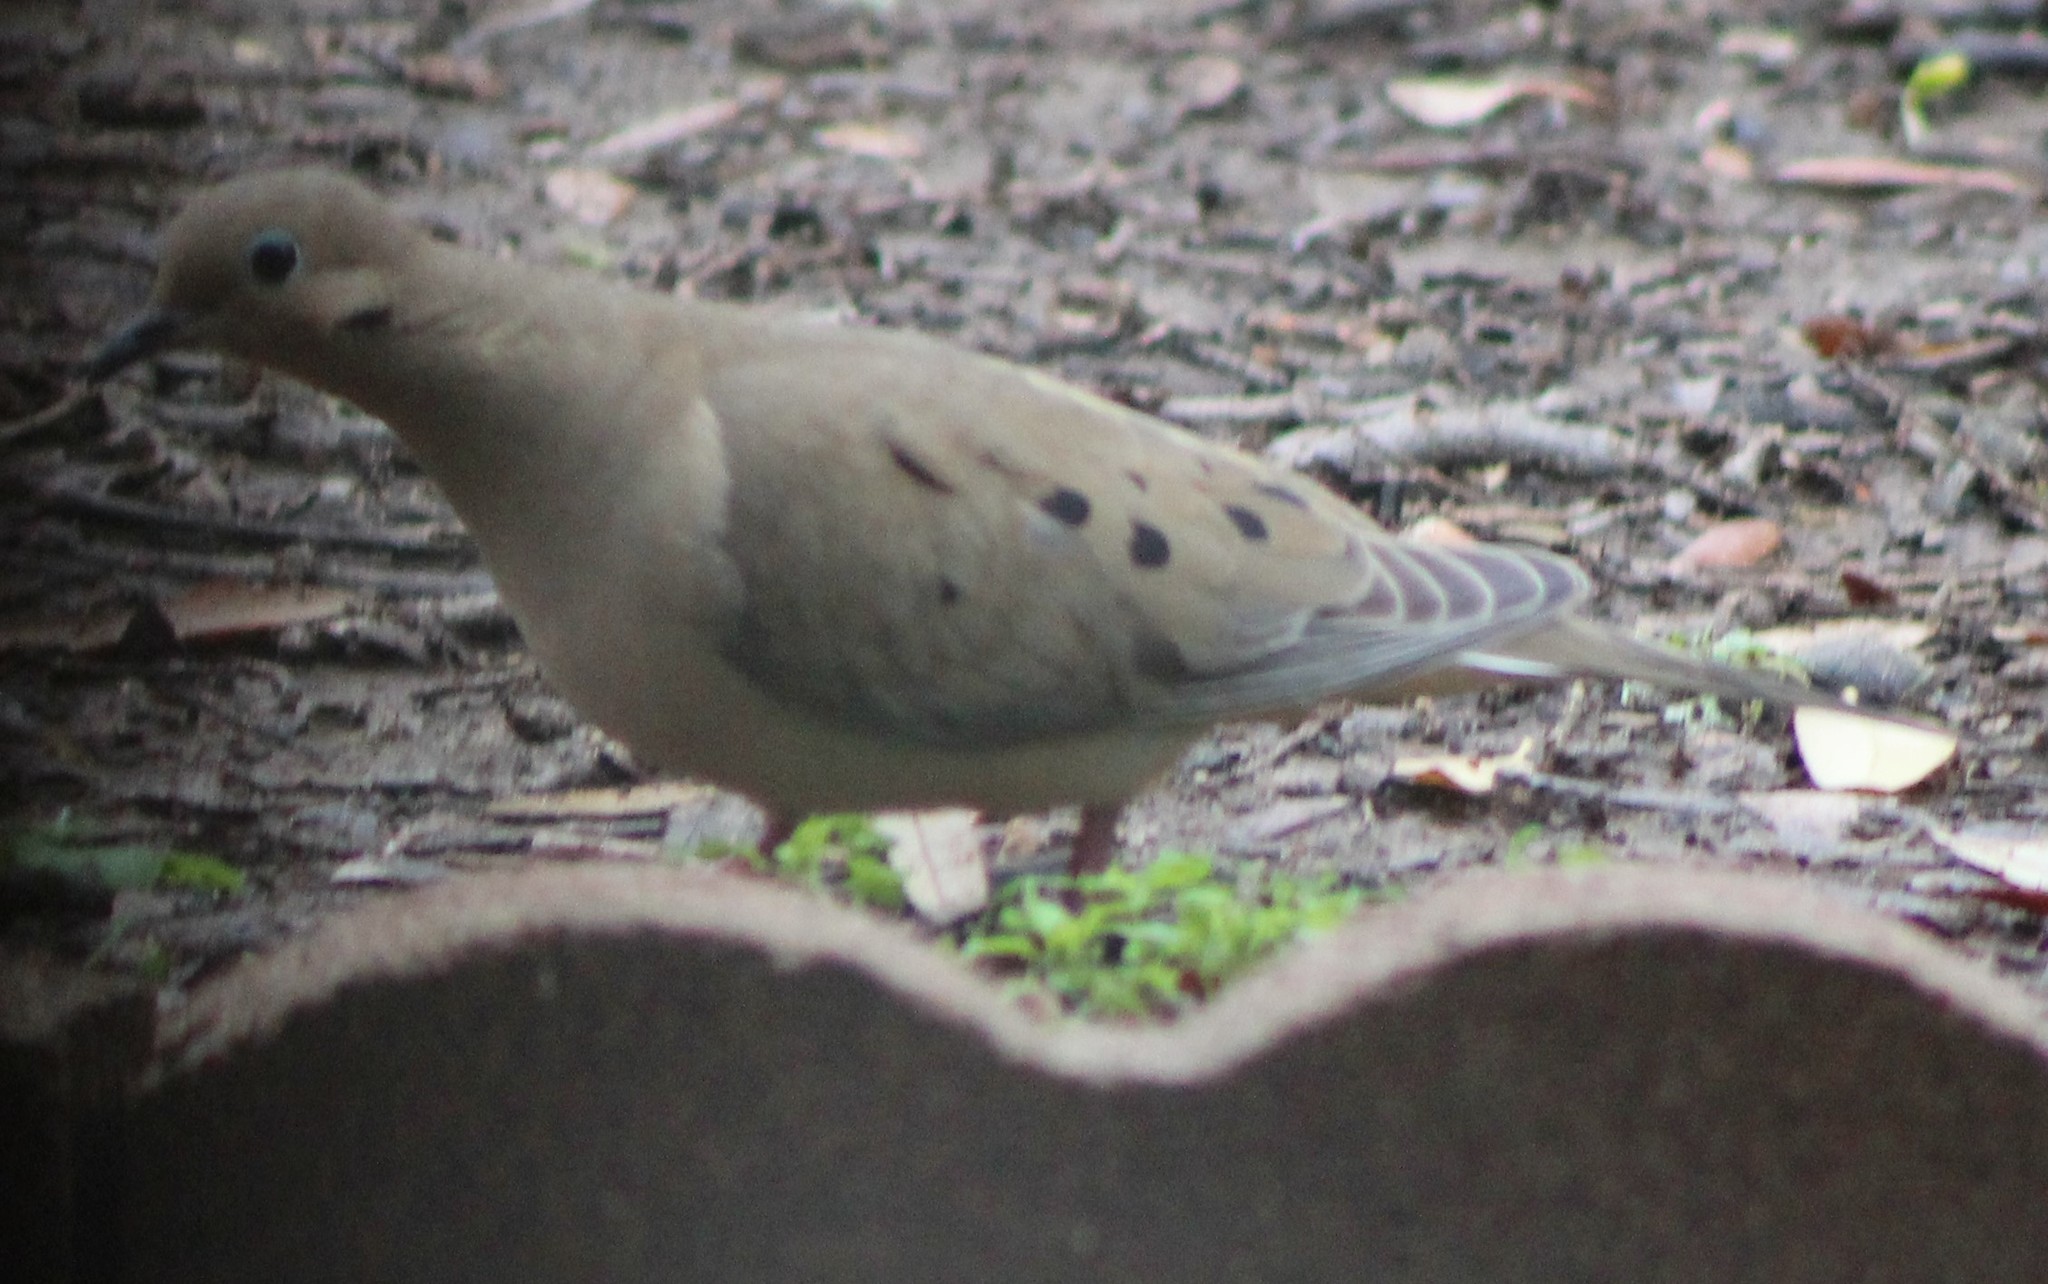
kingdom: Animalia
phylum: Chordata
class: Aves
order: Columbiformes
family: Columbidae
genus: Zenaida
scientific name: Zenaida macroura
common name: Mourning dove
